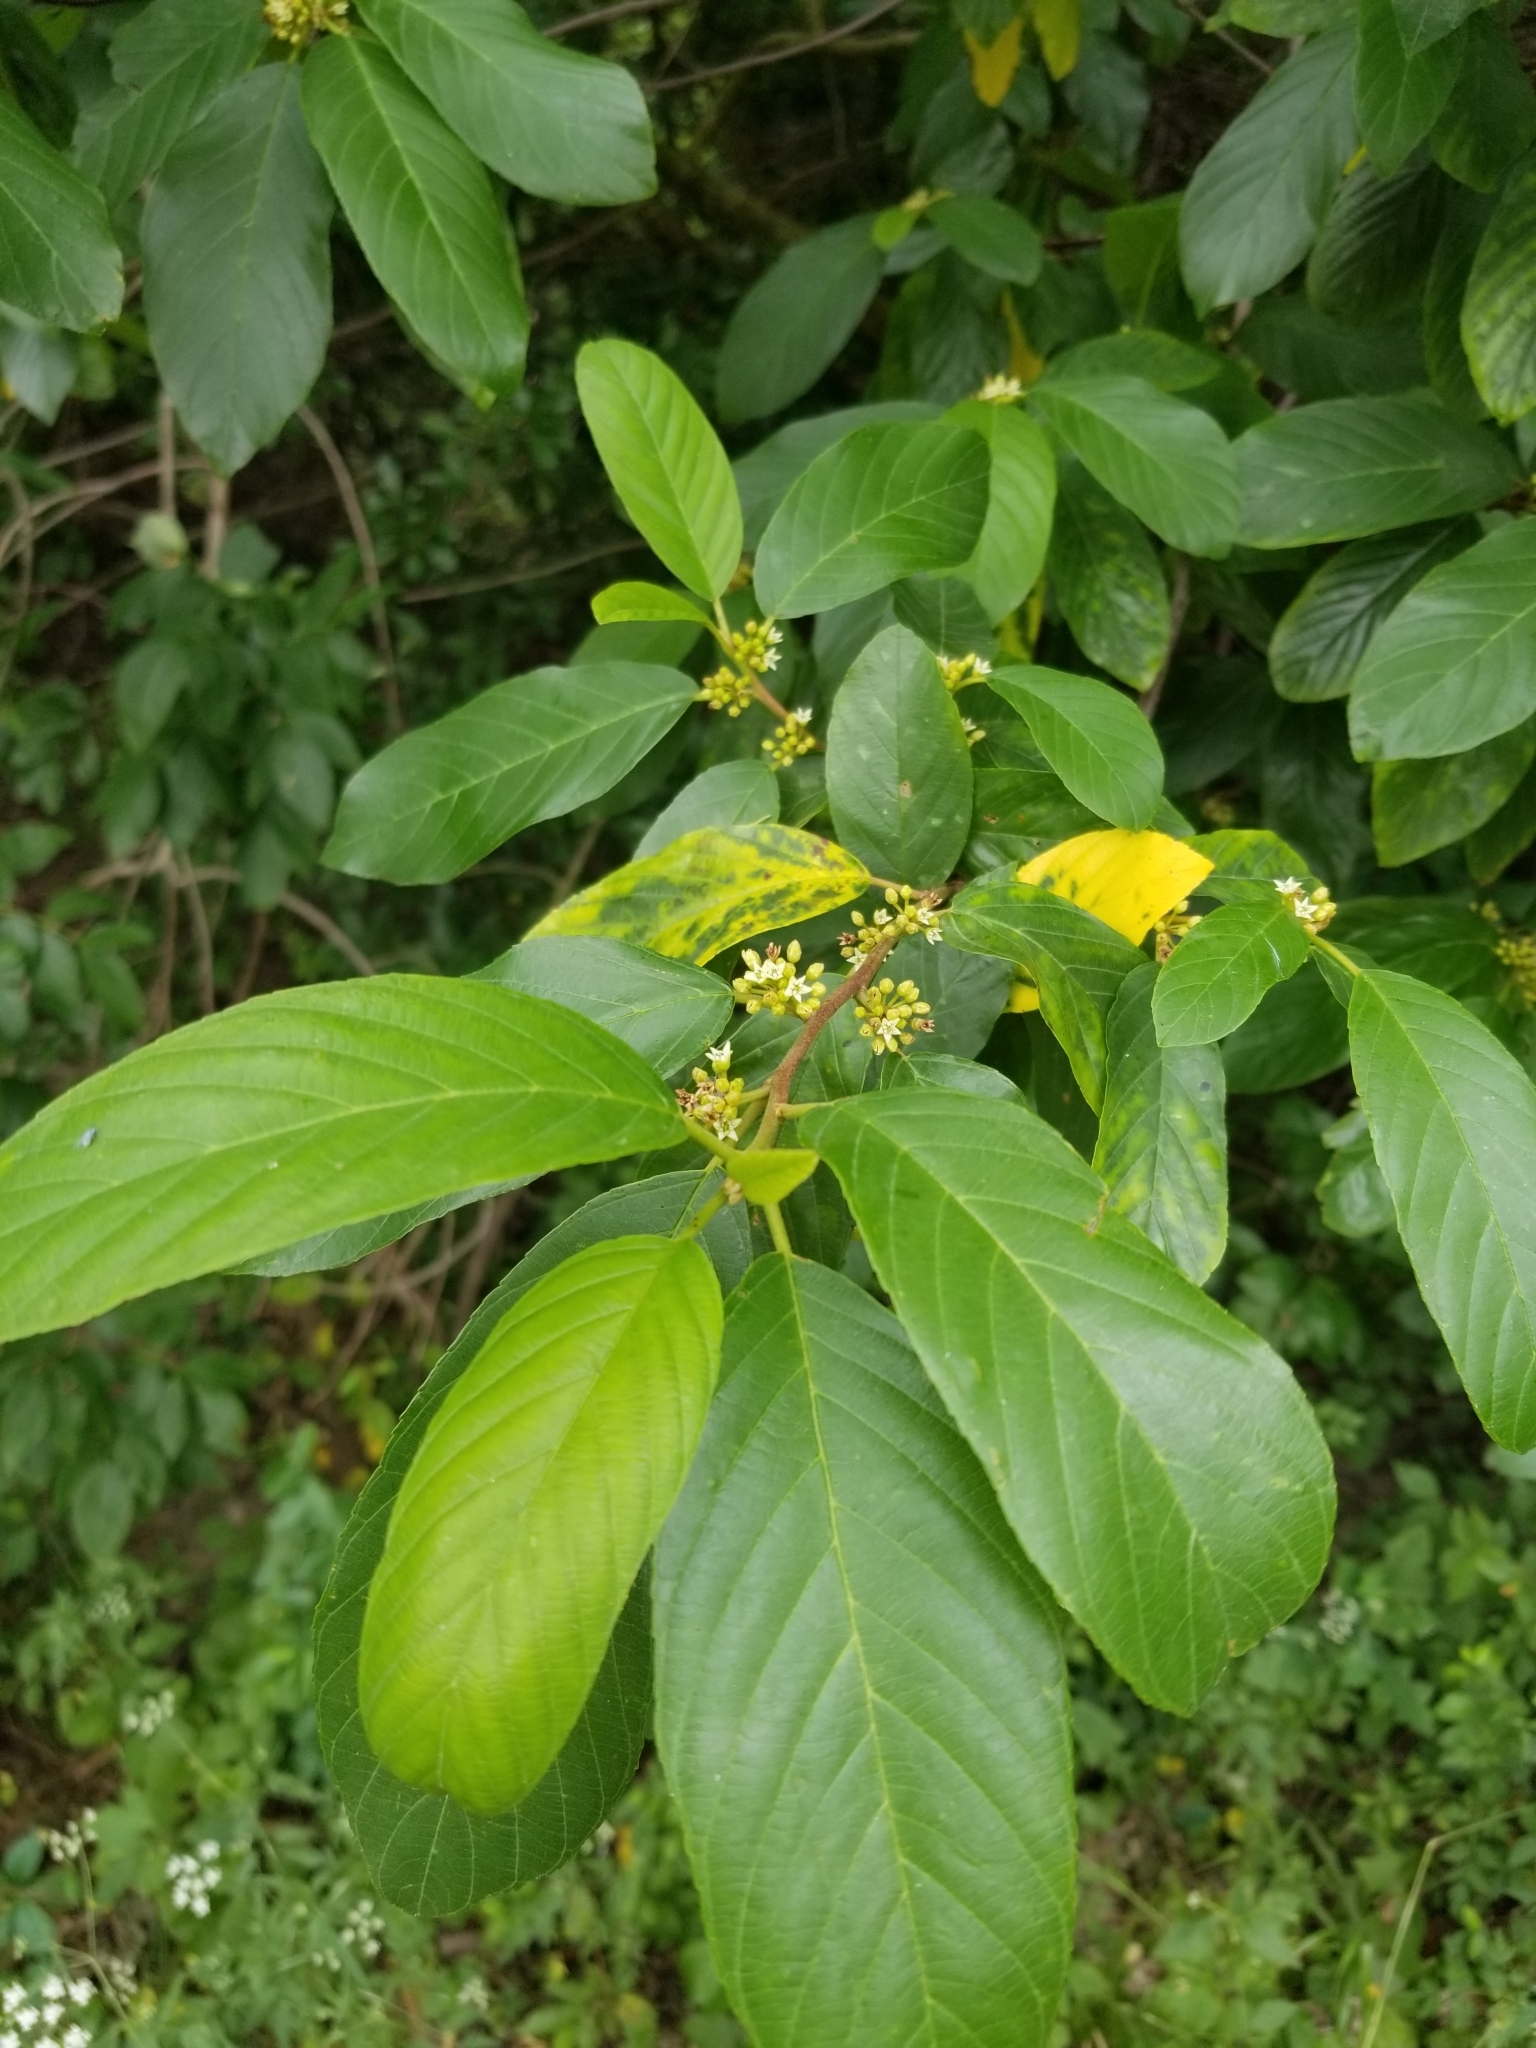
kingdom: Plantae
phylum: Tracheophyta
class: Magnoliopsida
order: Rosales
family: Rhamnaceae
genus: Frangula
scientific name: Frangula caroliniana
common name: Carolina buckthorn
